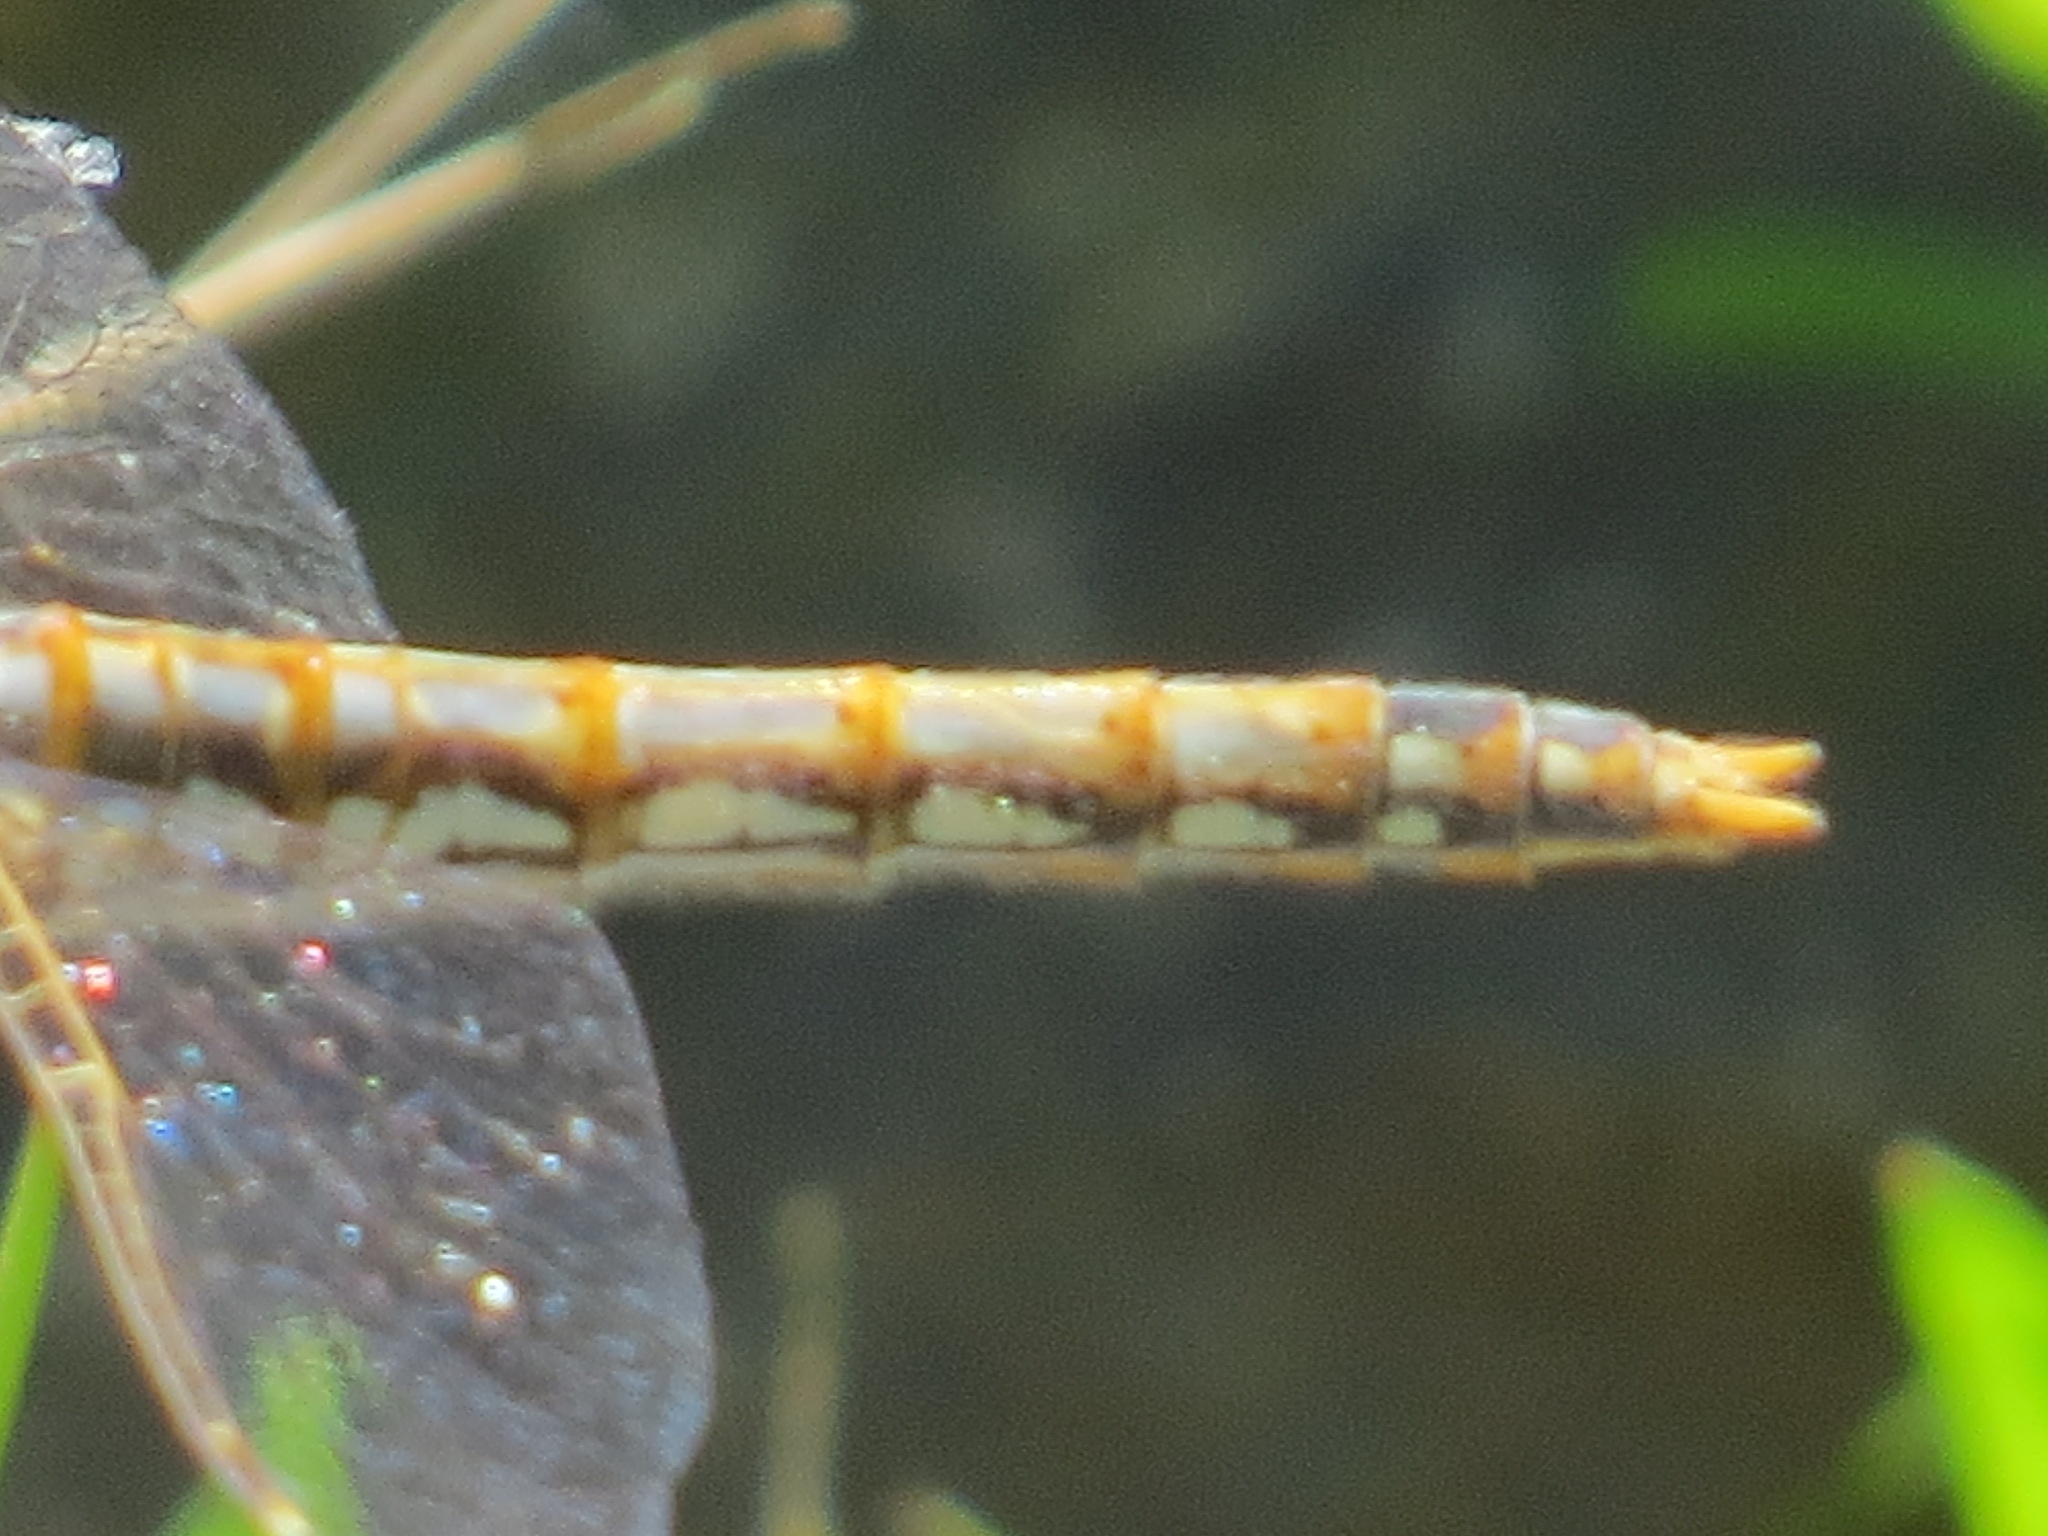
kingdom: Animalia
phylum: Arthropoda
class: Insecta
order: Odonata
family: Libellulidae
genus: Sympetrum
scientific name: Sympetrum corruptum
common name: Variegated meadowhawk
